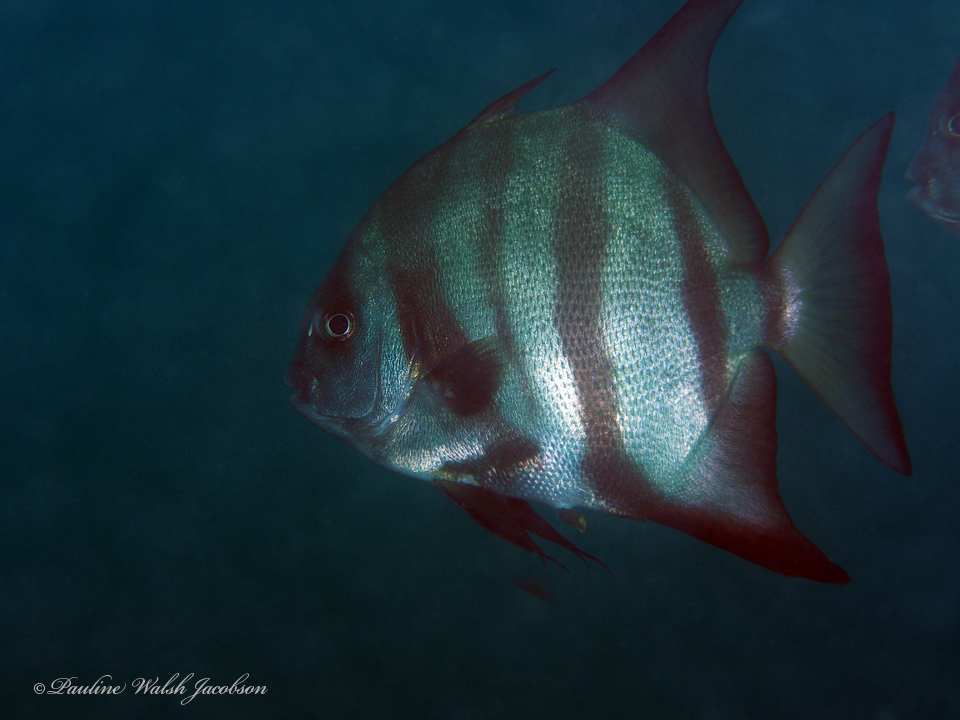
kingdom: Animalia
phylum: Chordata
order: Perciformes
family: Ephippidae
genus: Chaetodipterus
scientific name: Chaetodipterus faber
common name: Ocean cobbler
